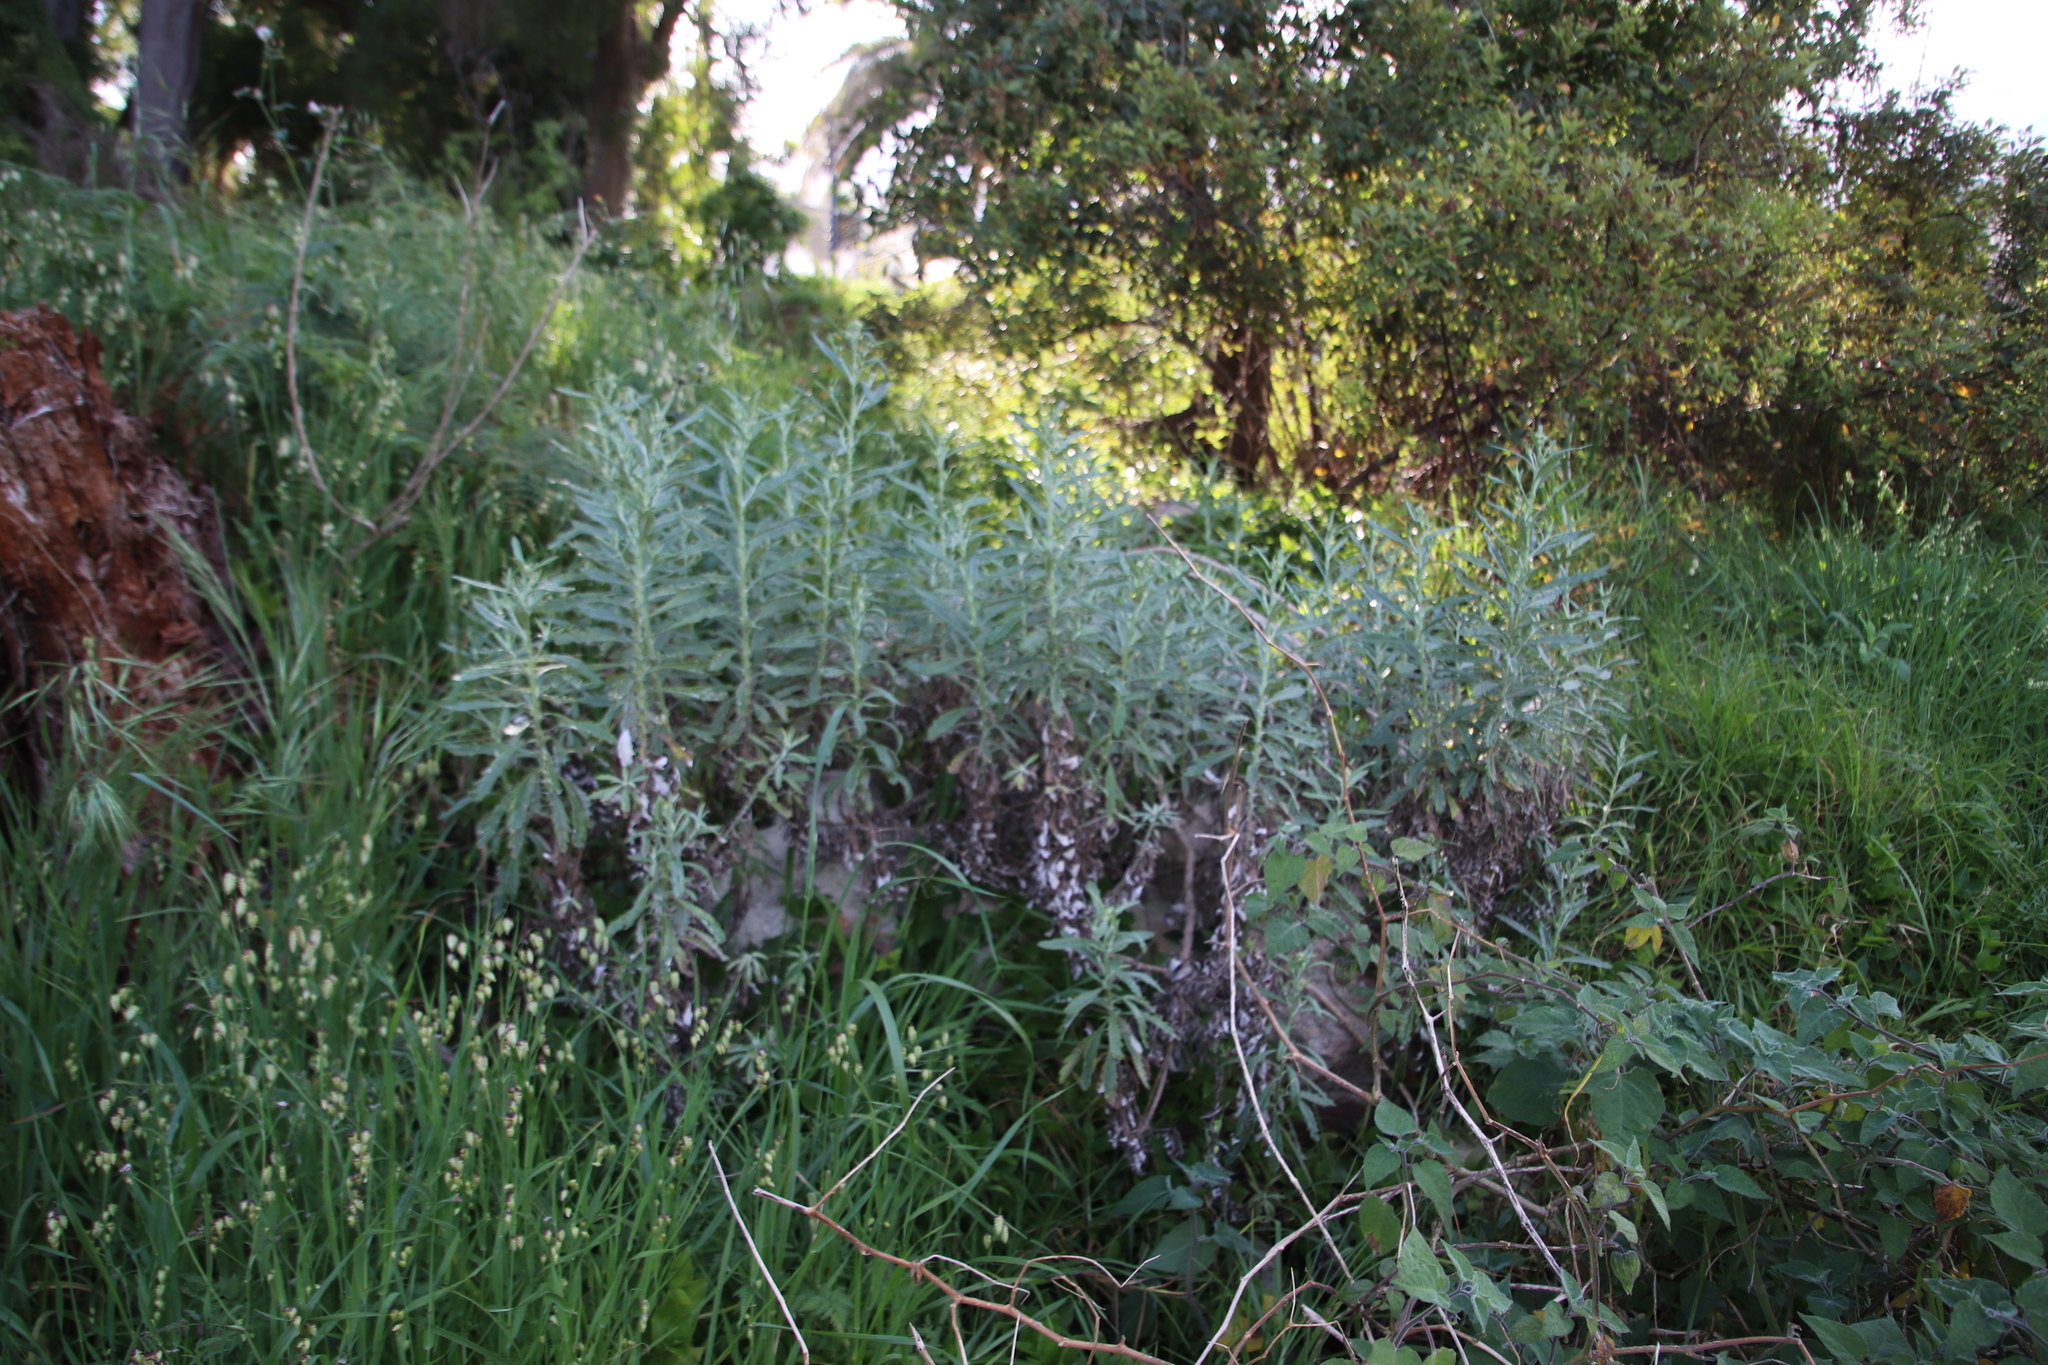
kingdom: Plantae
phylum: Tracheophyta
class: Magnoliopsida
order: Asterales
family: Asteraceae
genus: Senecio
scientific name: Senecio pterophorus
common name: Shoddy ragwort
